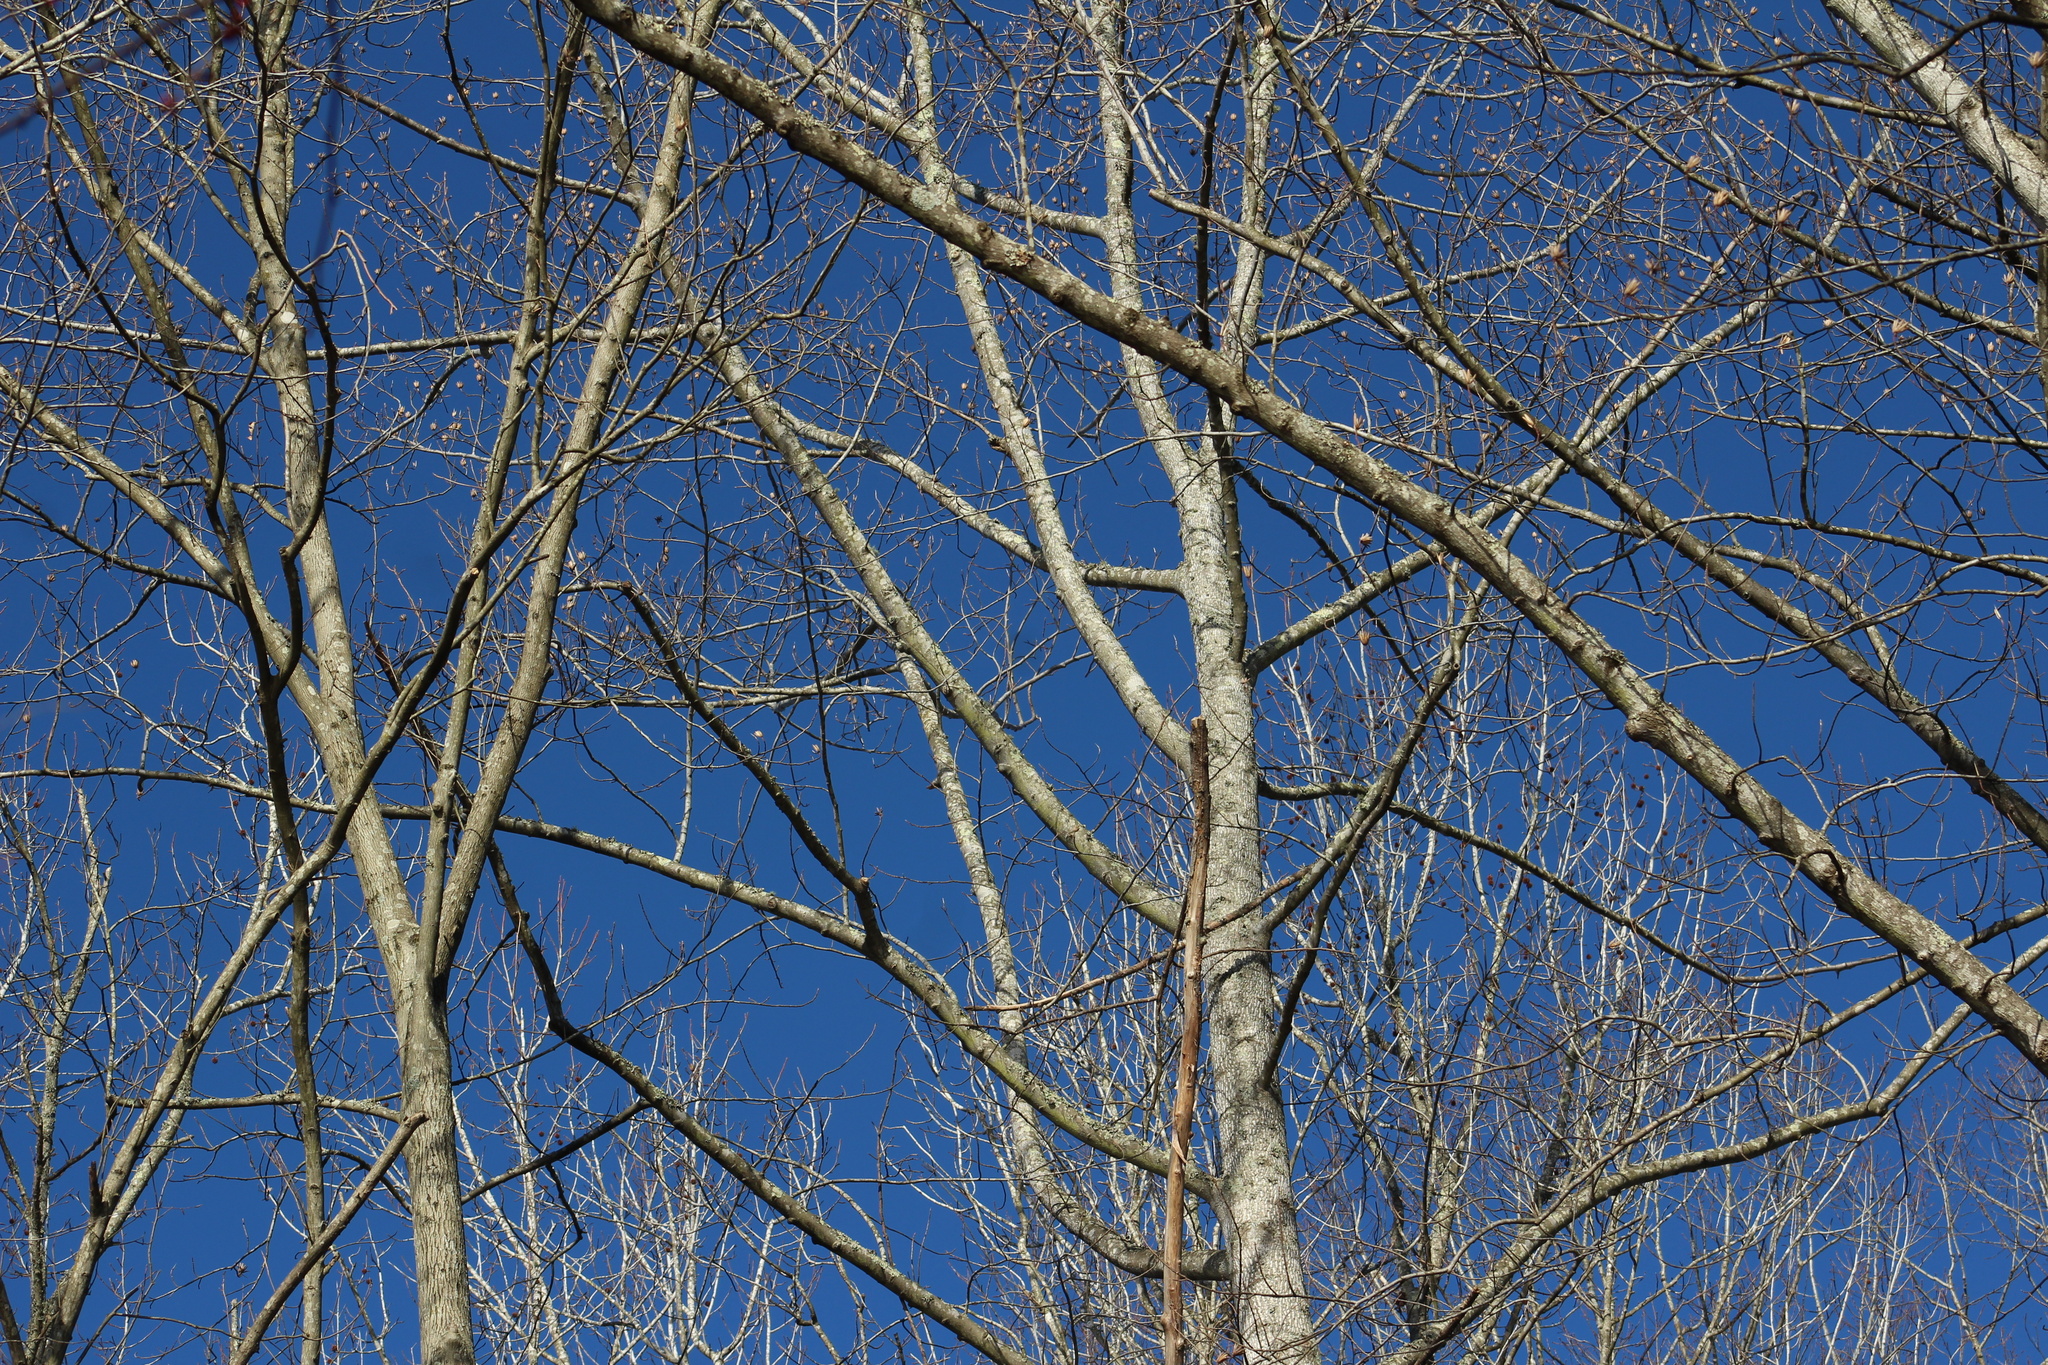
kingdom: Plantae
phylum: Tracheophyta
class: Magnoliopsida
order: Magnoliales
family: Magnoliaceae
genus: Liriodendron
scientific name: Liriodendron tulipifera
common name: Tulip tree
